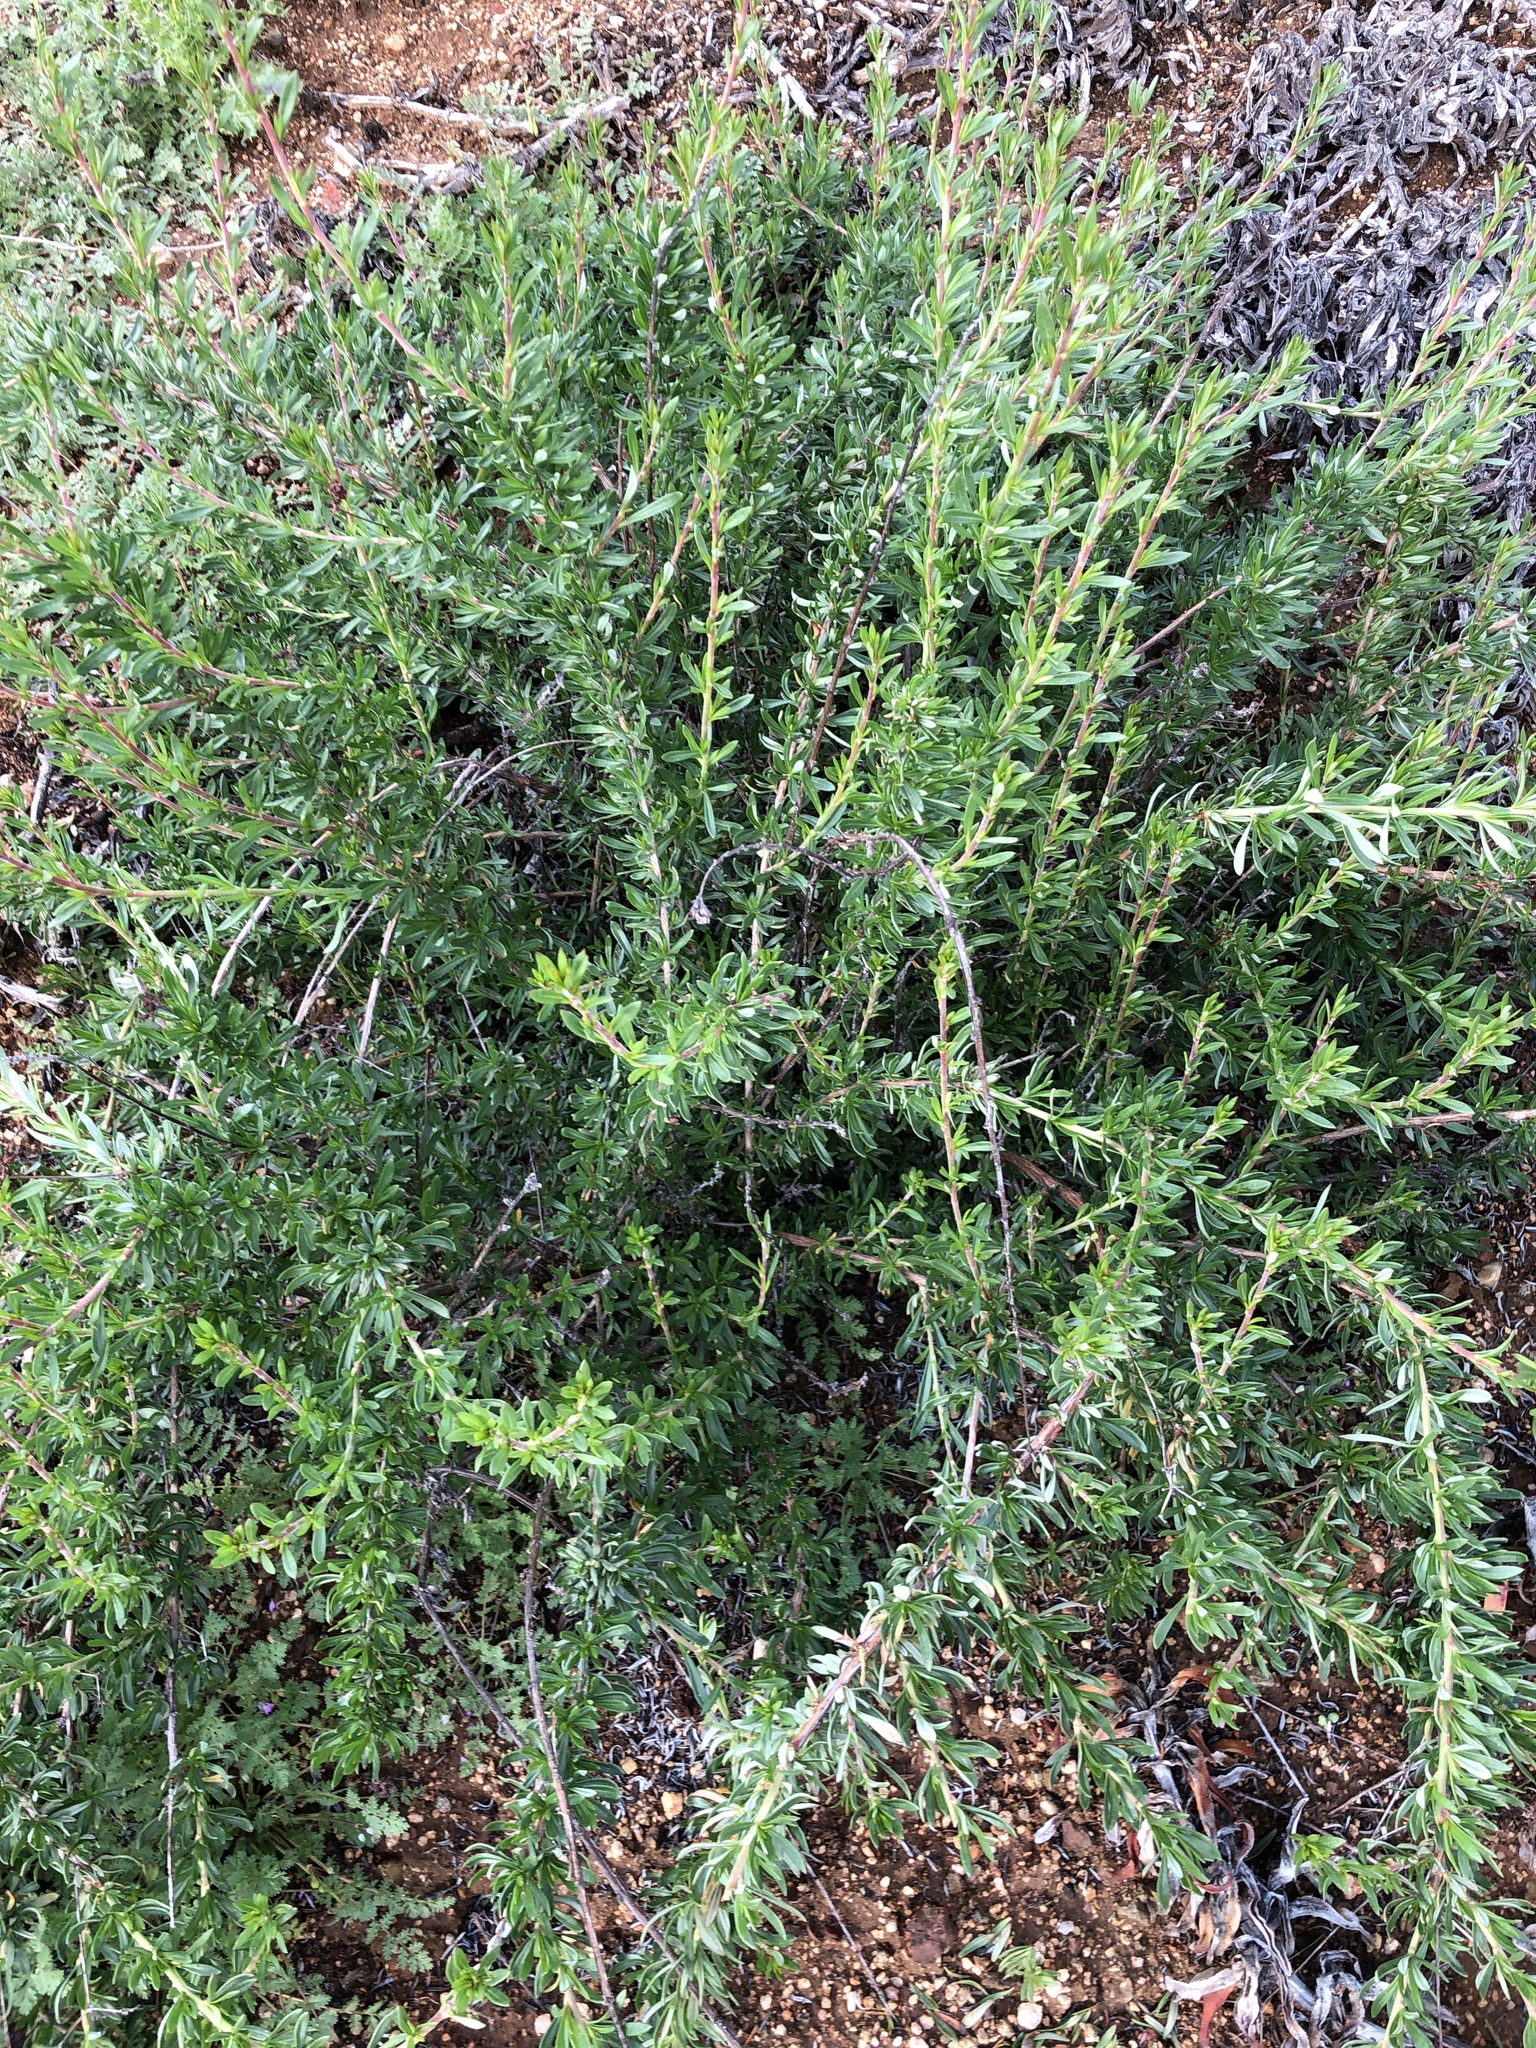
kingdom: Plantae
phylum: Tracheophyta
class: Magnoliopsida
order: Caryophyllales
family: Polygonaceae
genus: Eriogonum
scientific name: Eriogonum fasciculatum
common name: California wild buckwheat
